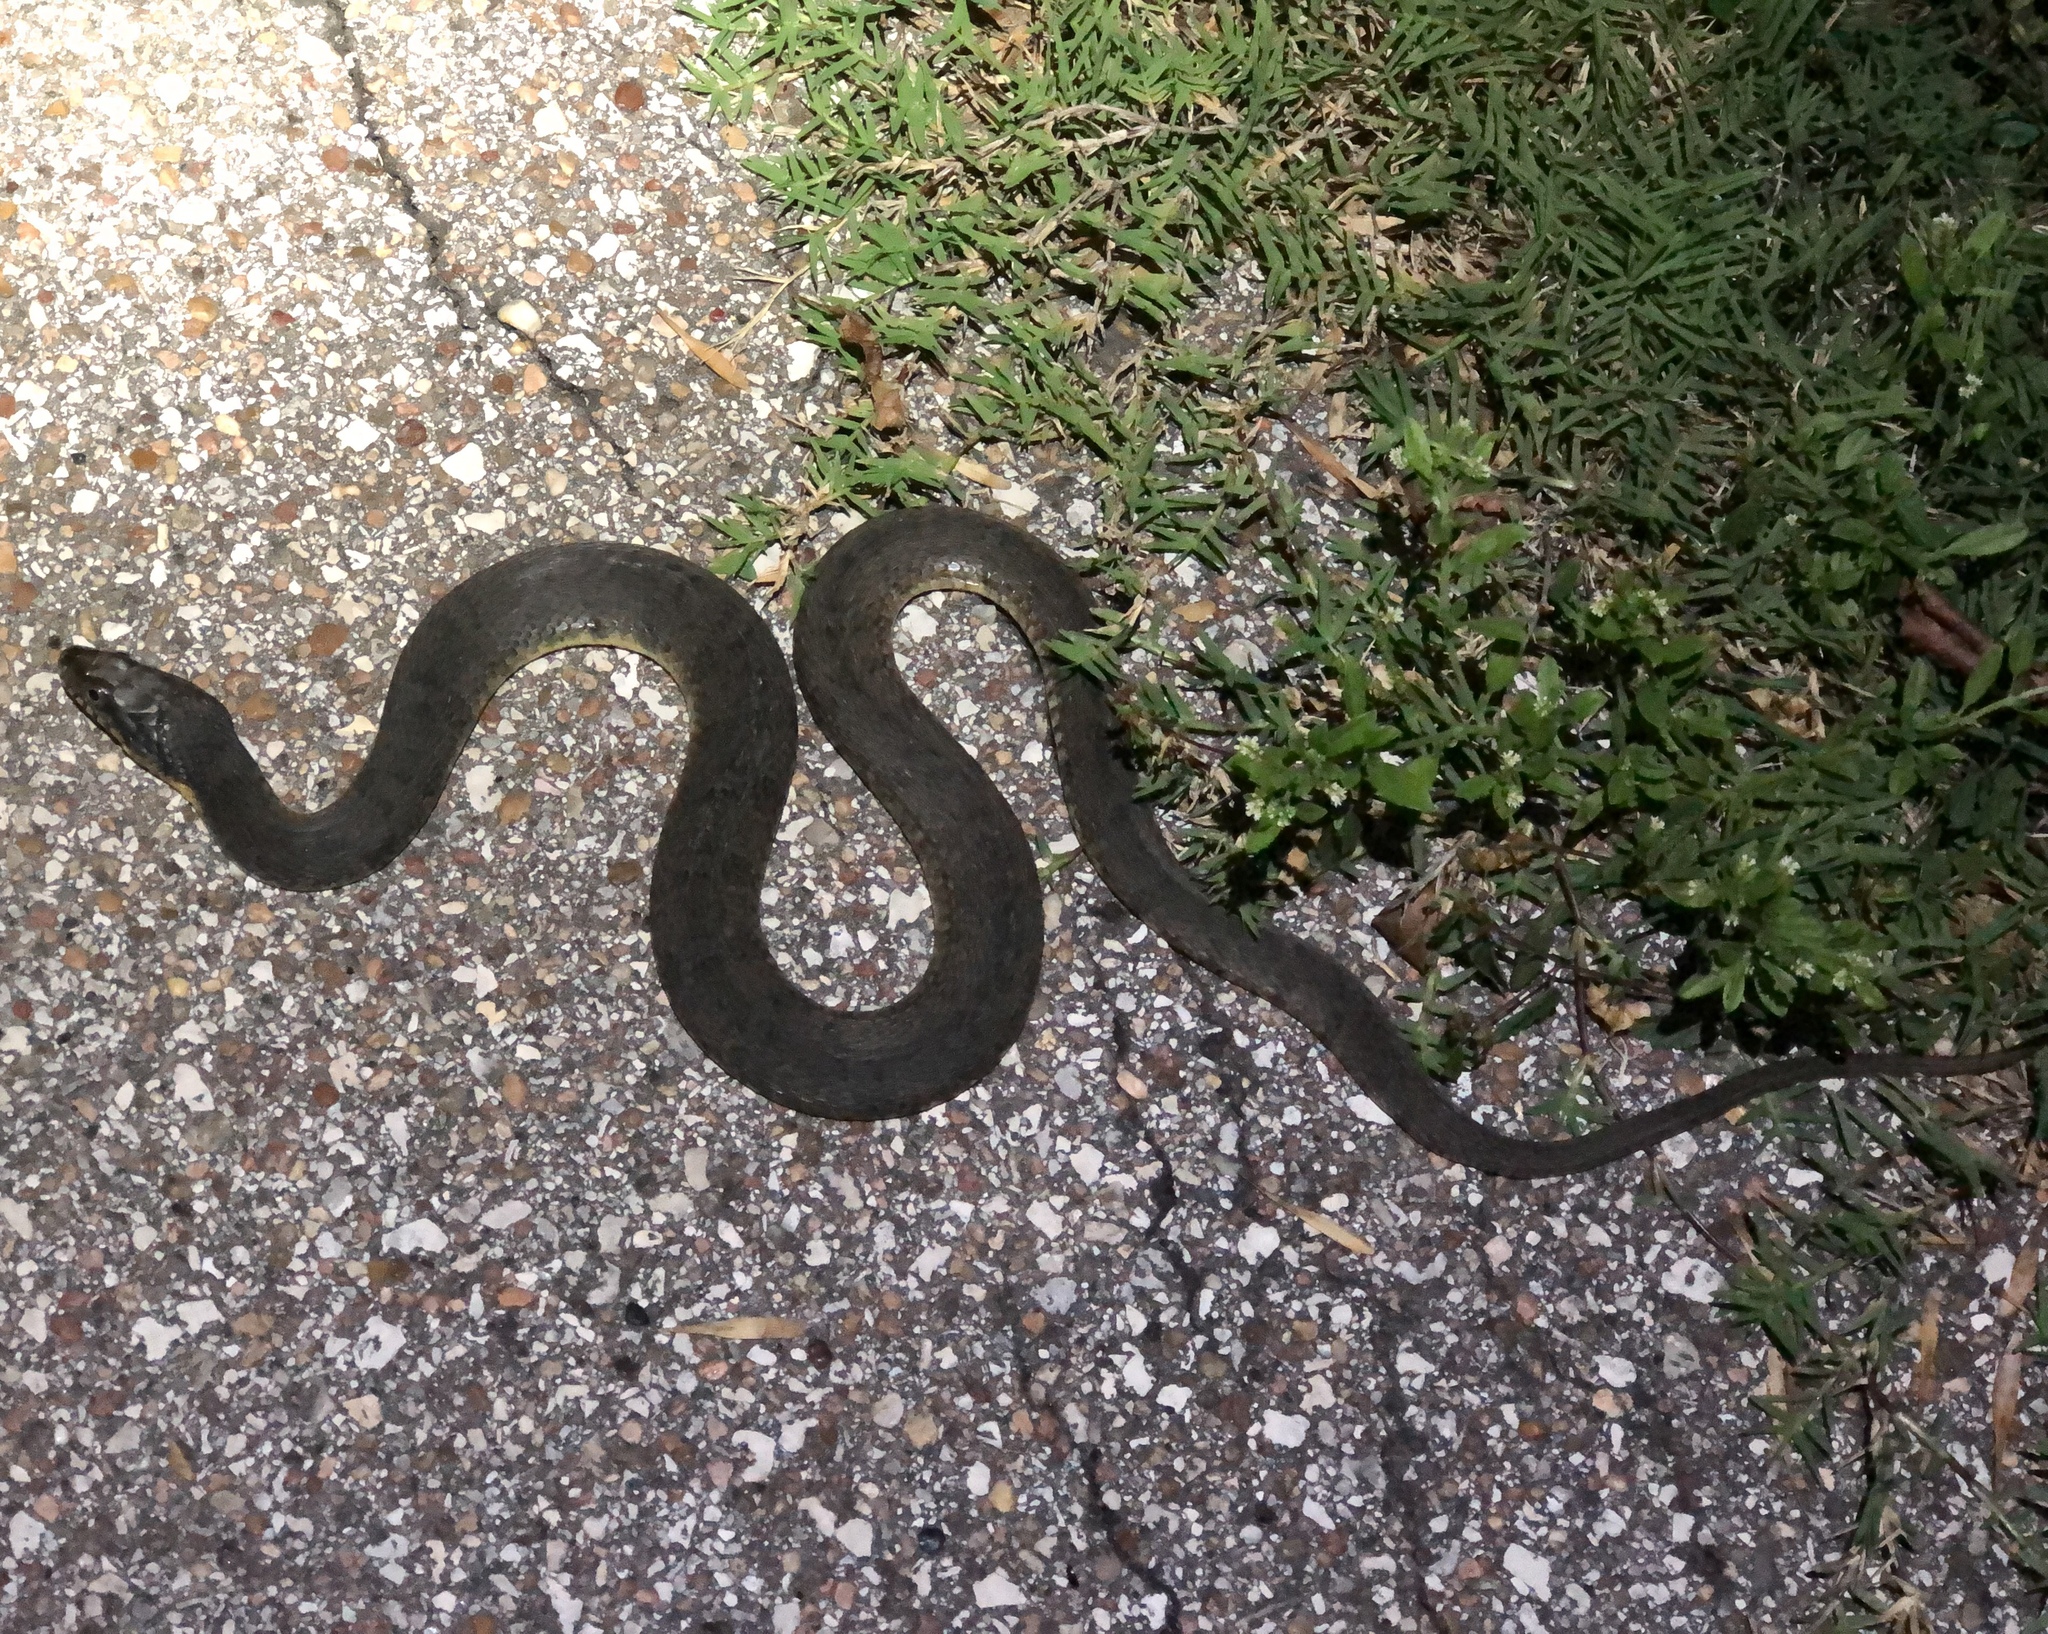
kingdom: Animalia
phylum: Chordata
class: Squamata
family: Colubridae
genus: Nerodia
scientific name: Nerodia erythrogaster
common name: Plainbelly water snake
